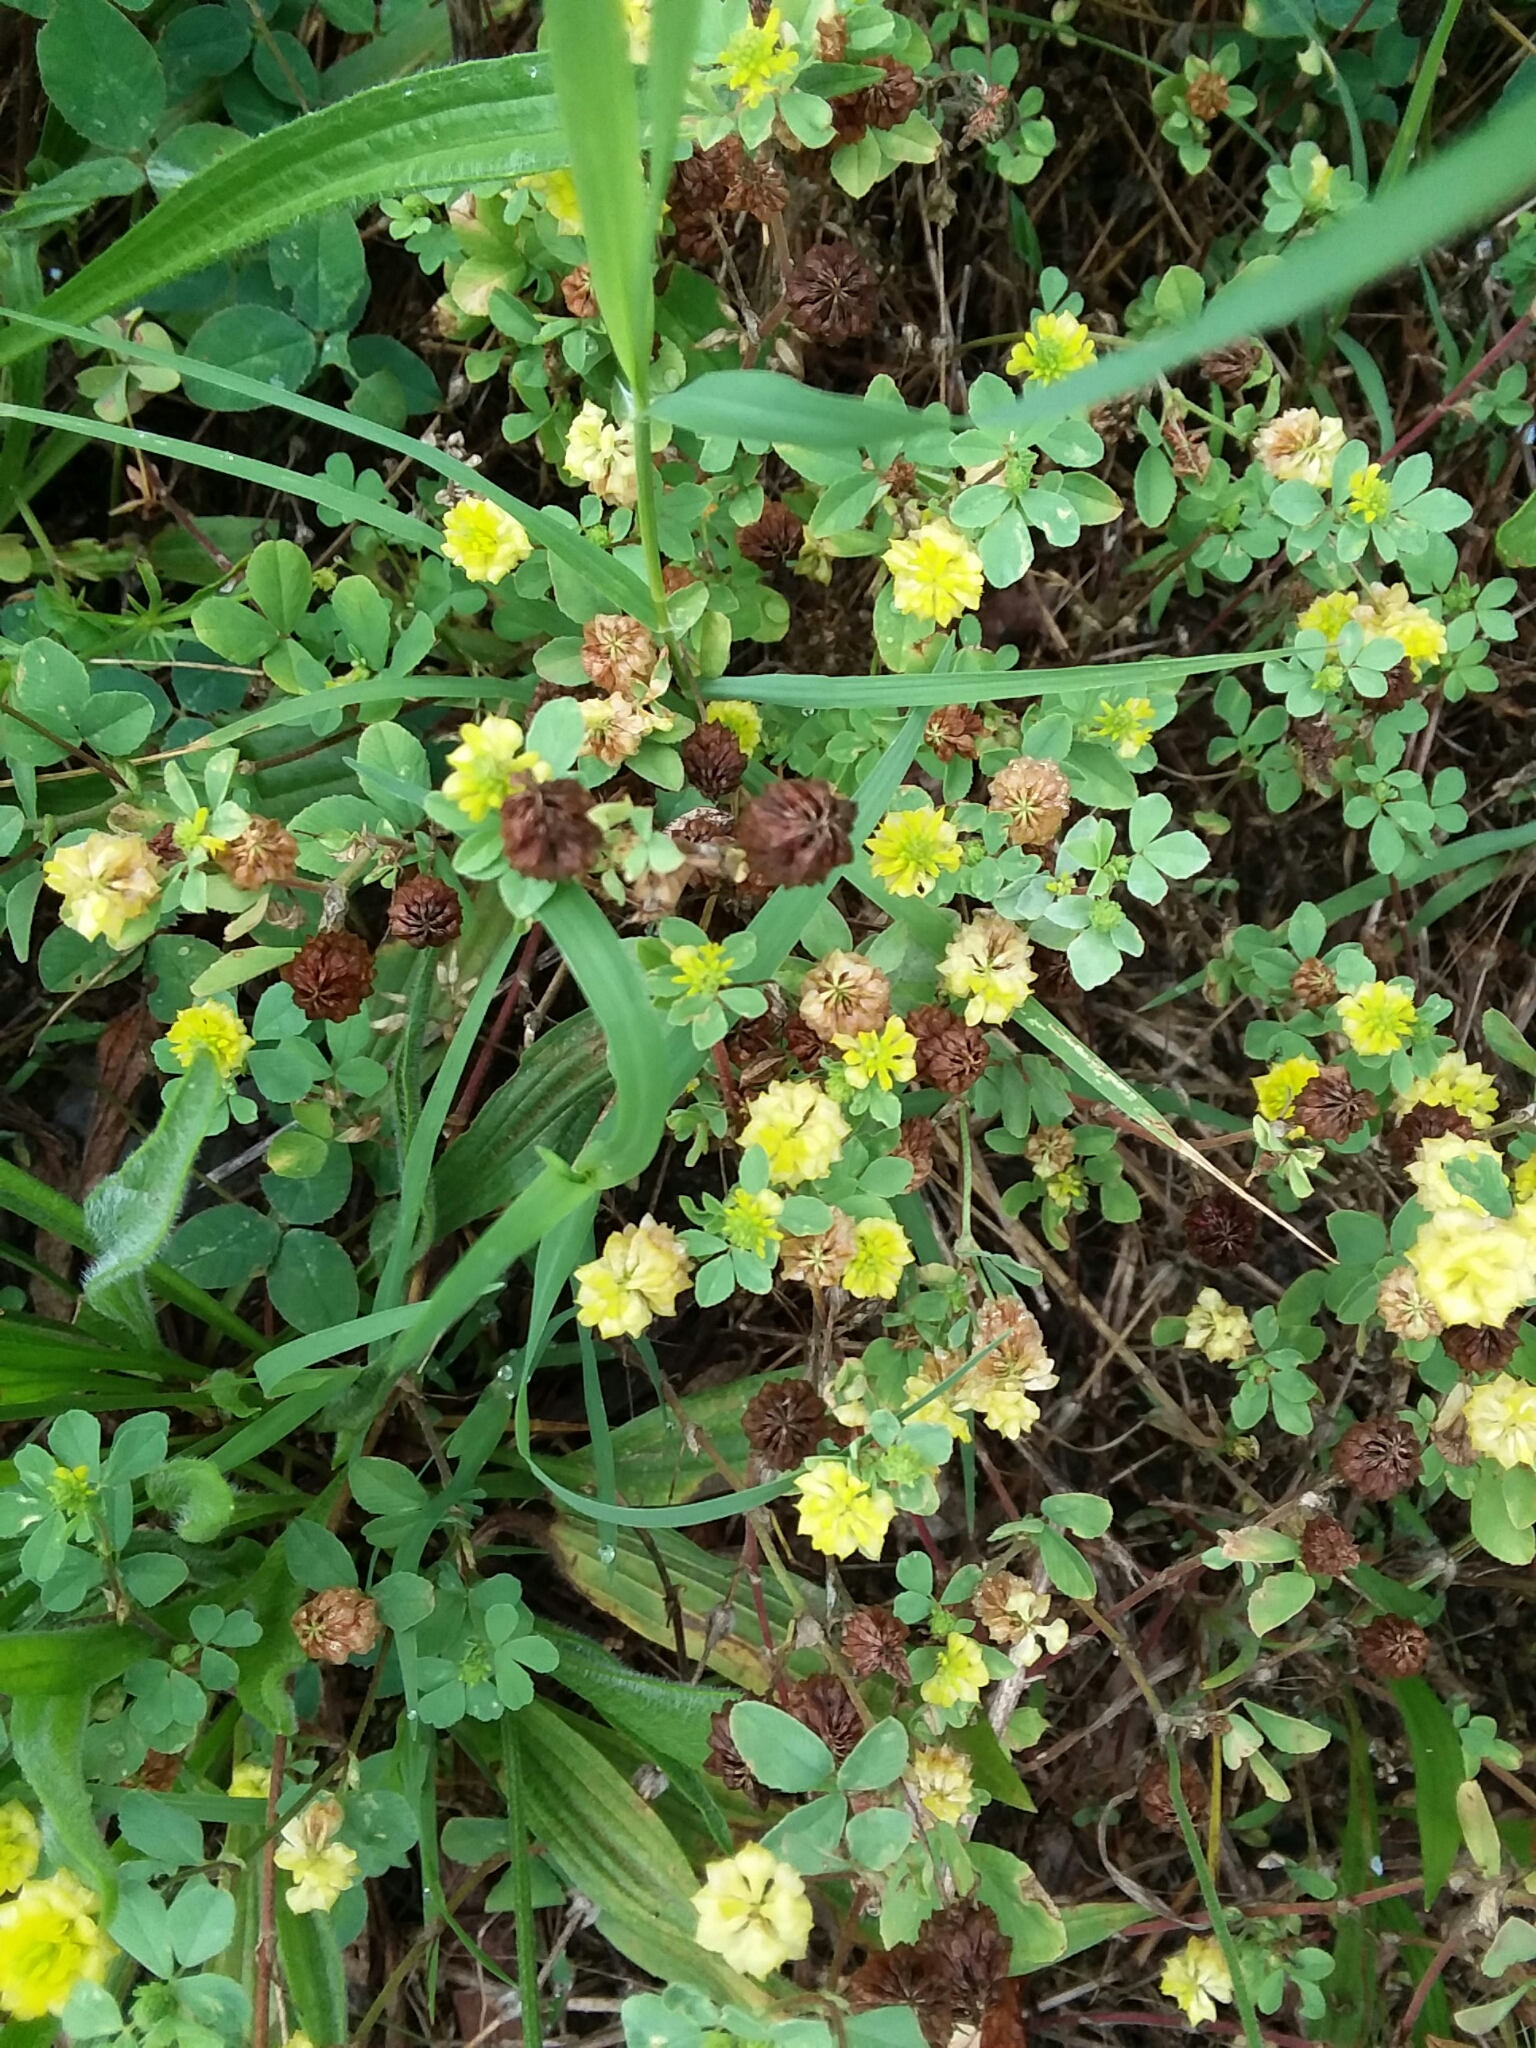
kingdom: Plantae
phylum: Tracheophyta
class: Magnoliopsida
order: Fabales
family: Fabaceae
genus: Trifolium
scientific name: Trifolium campestre
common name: Field clover
